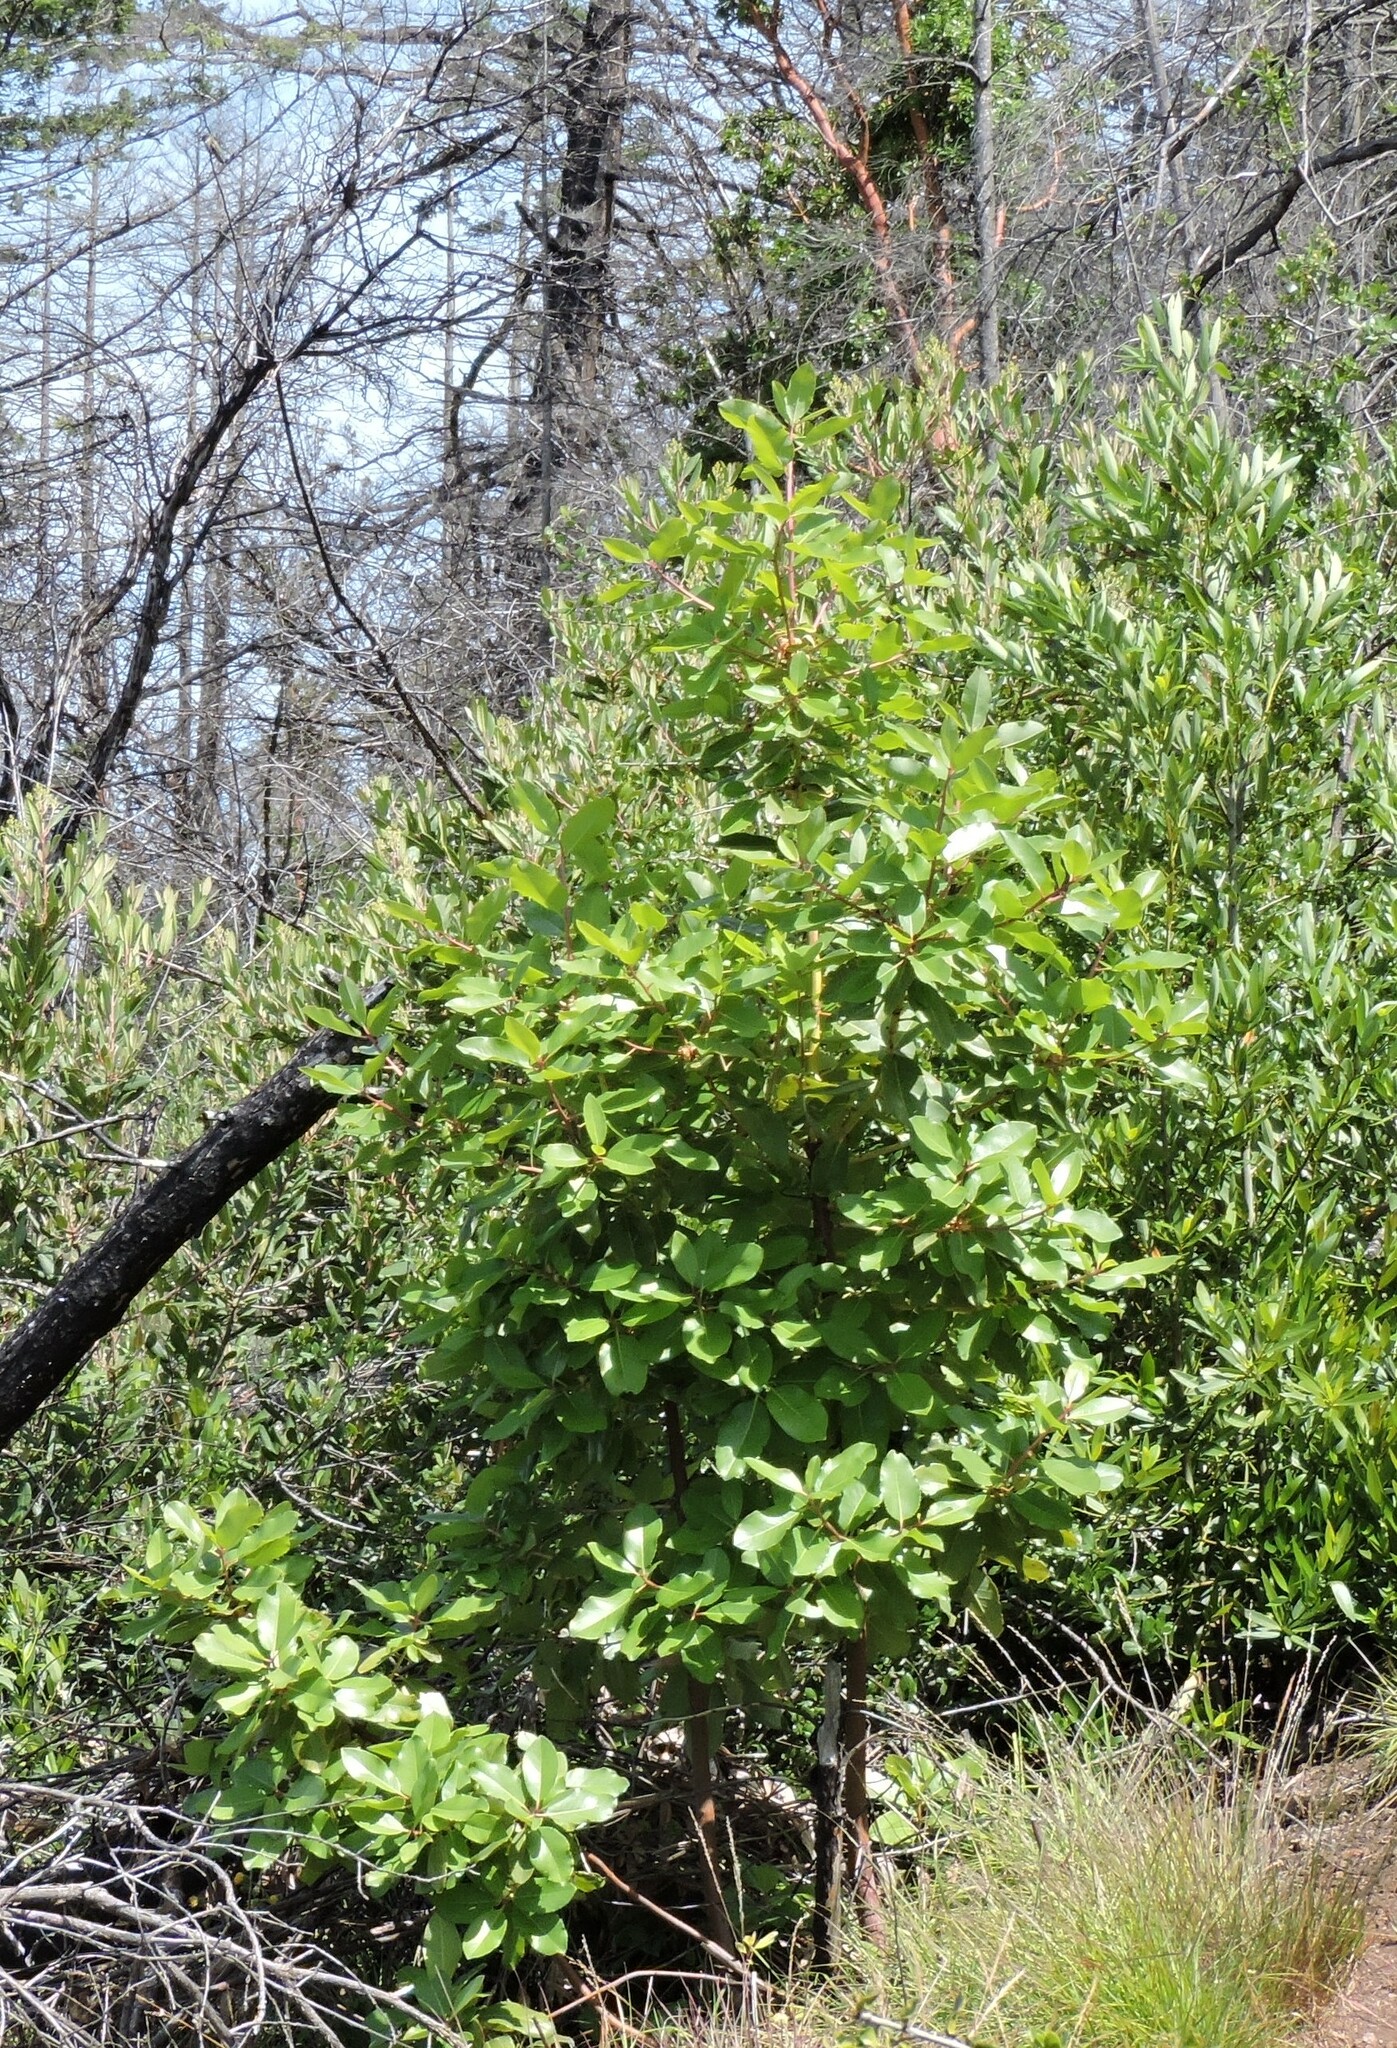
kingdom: Plantae
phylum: Tracheophyta
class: Magnoliopsida
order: Ericales
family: Ericaceae
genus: Arbutus
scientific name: Arbutus menziesii
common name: Pacific madrone
